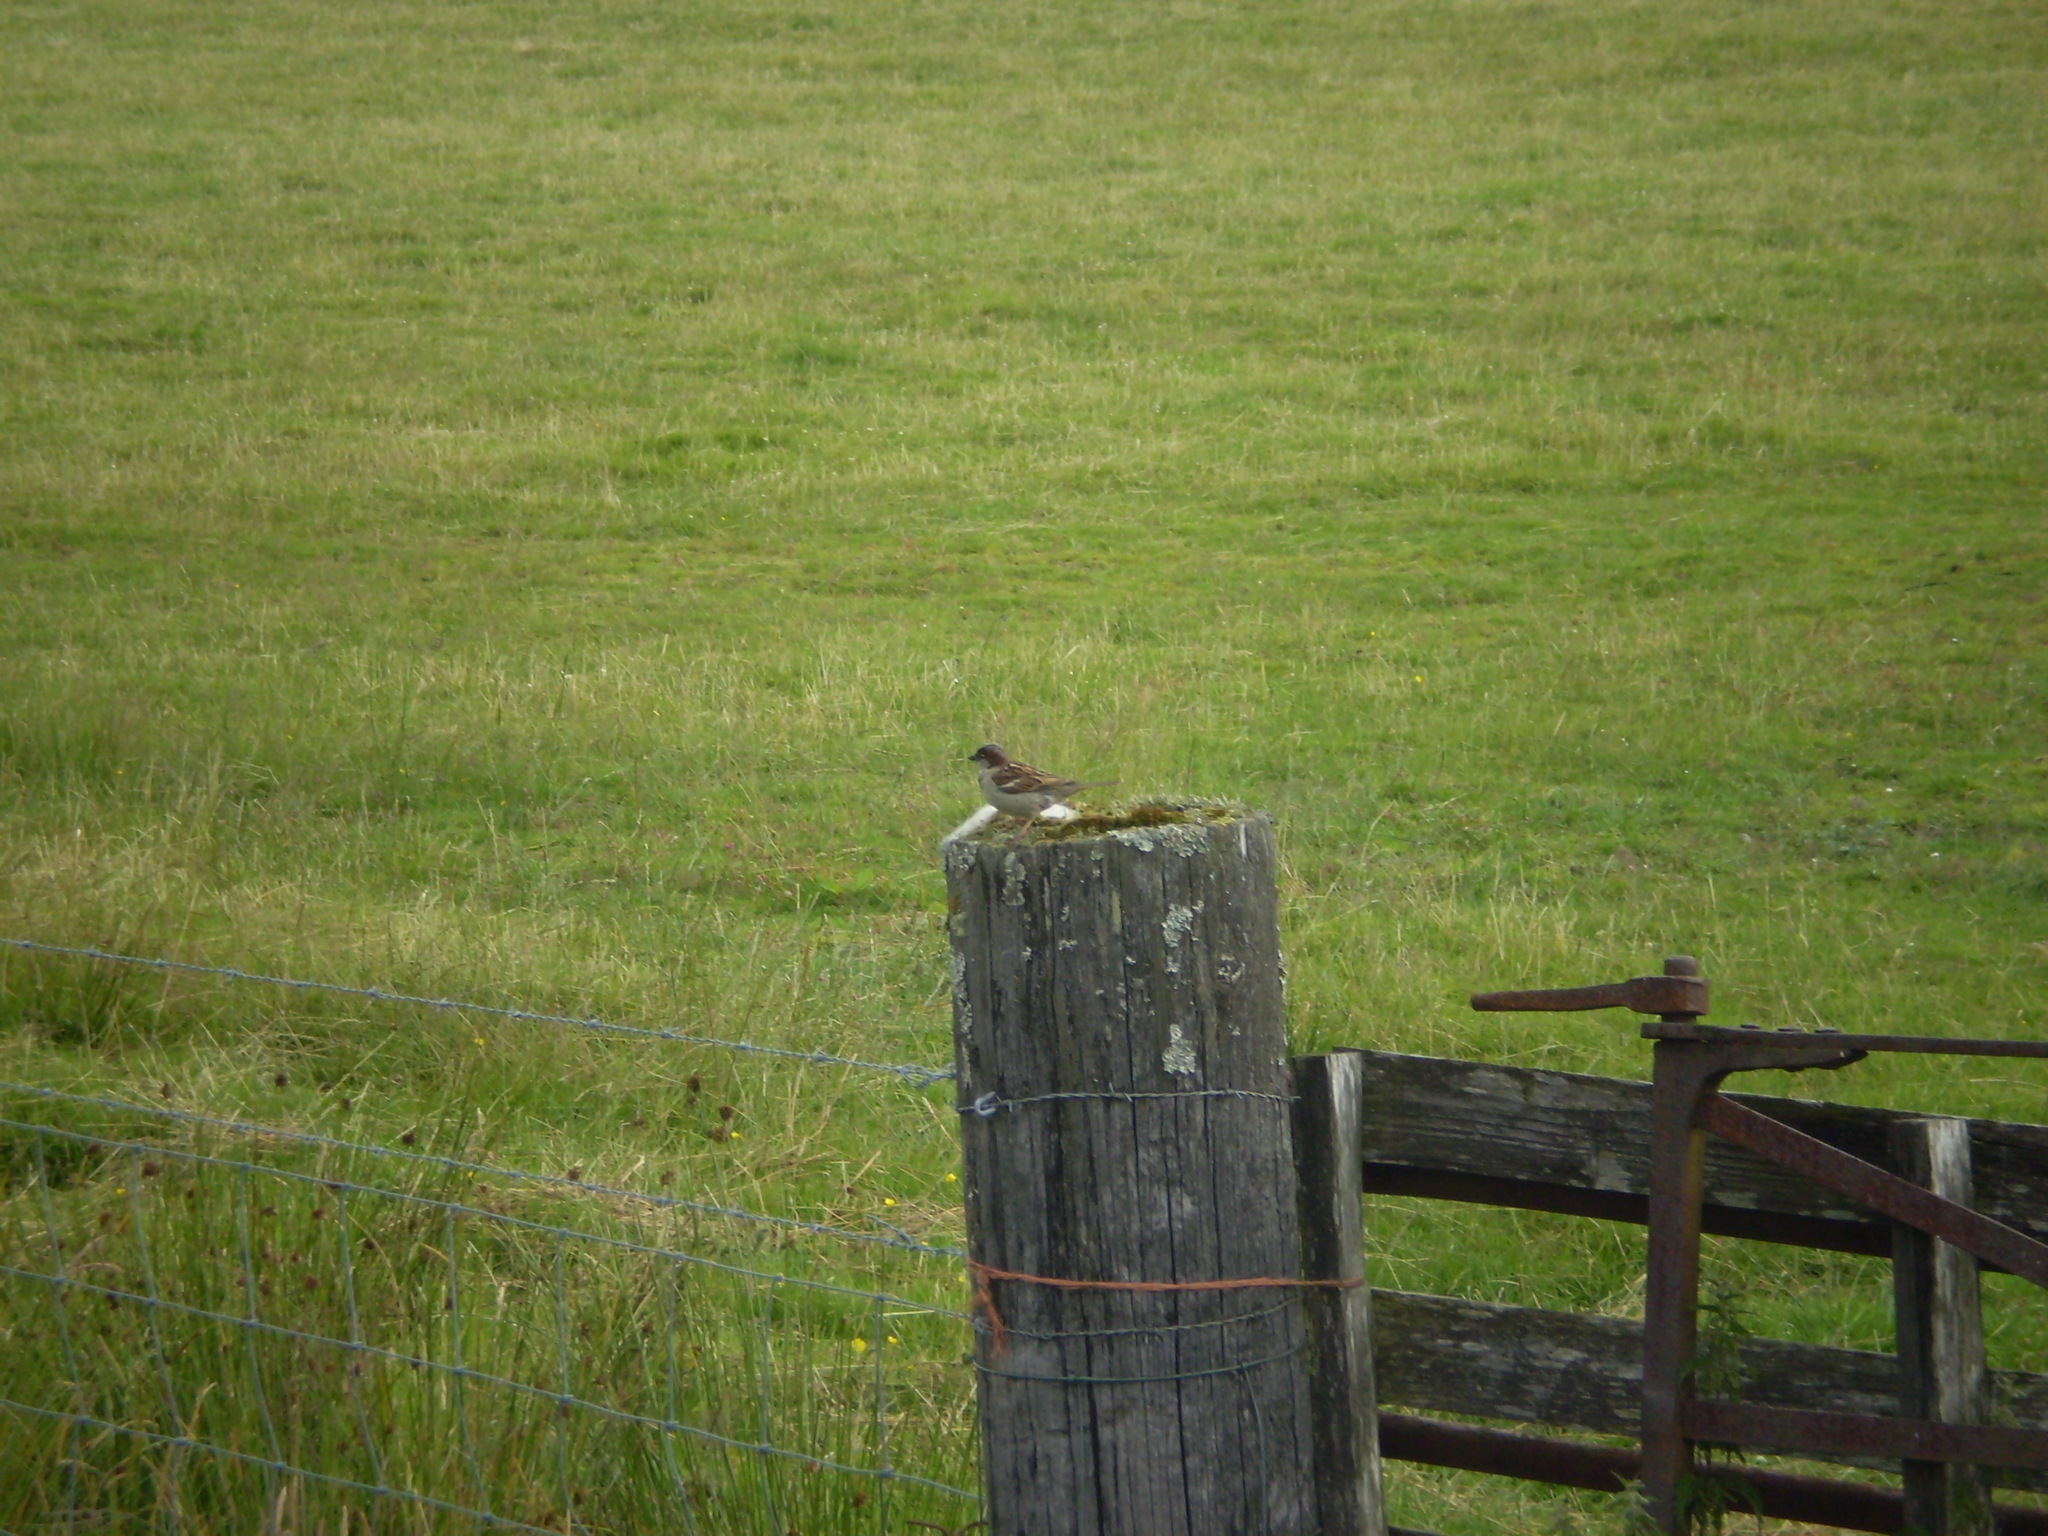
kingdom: Animalia
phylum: Chordata
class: Aves
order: Passeriformes
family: Passeridae
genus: Passer
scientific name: Passer domesticus
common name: House sparrow
